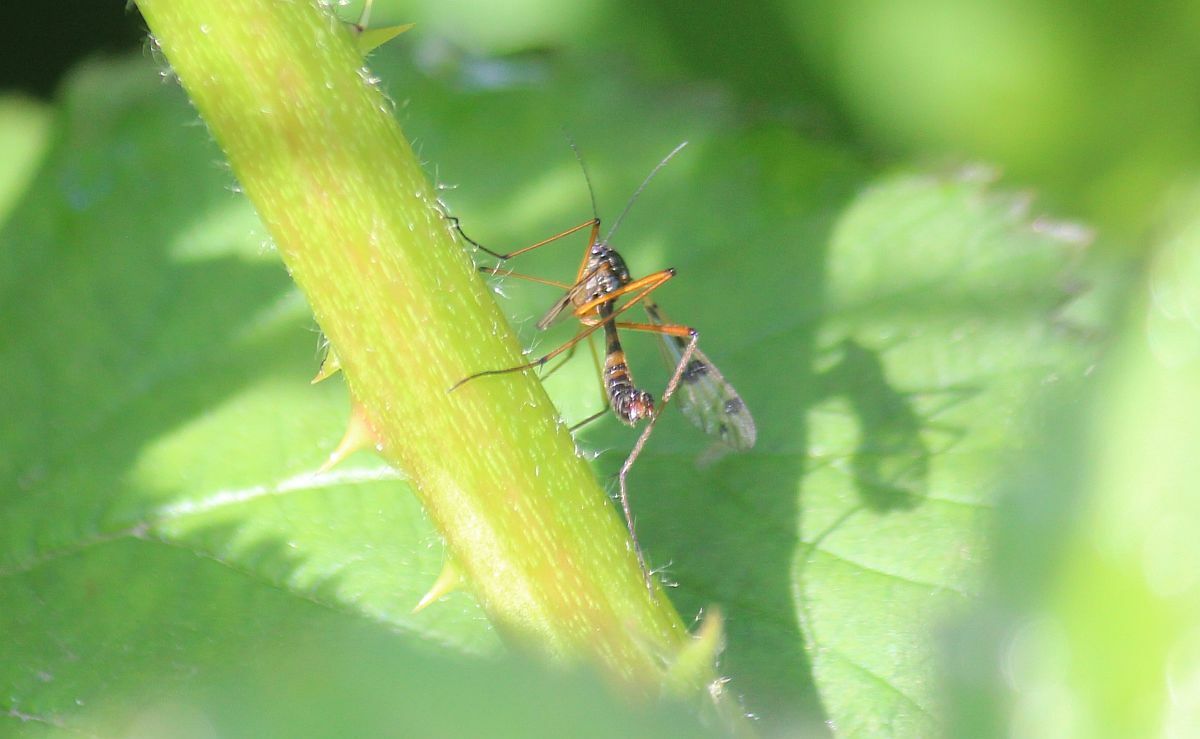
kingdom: Animalia
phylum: Arthropoda
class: Insecta
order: Diptera
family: Ptychopteridae
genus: Ptychoptera
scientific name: Ptychoptera contaminata
